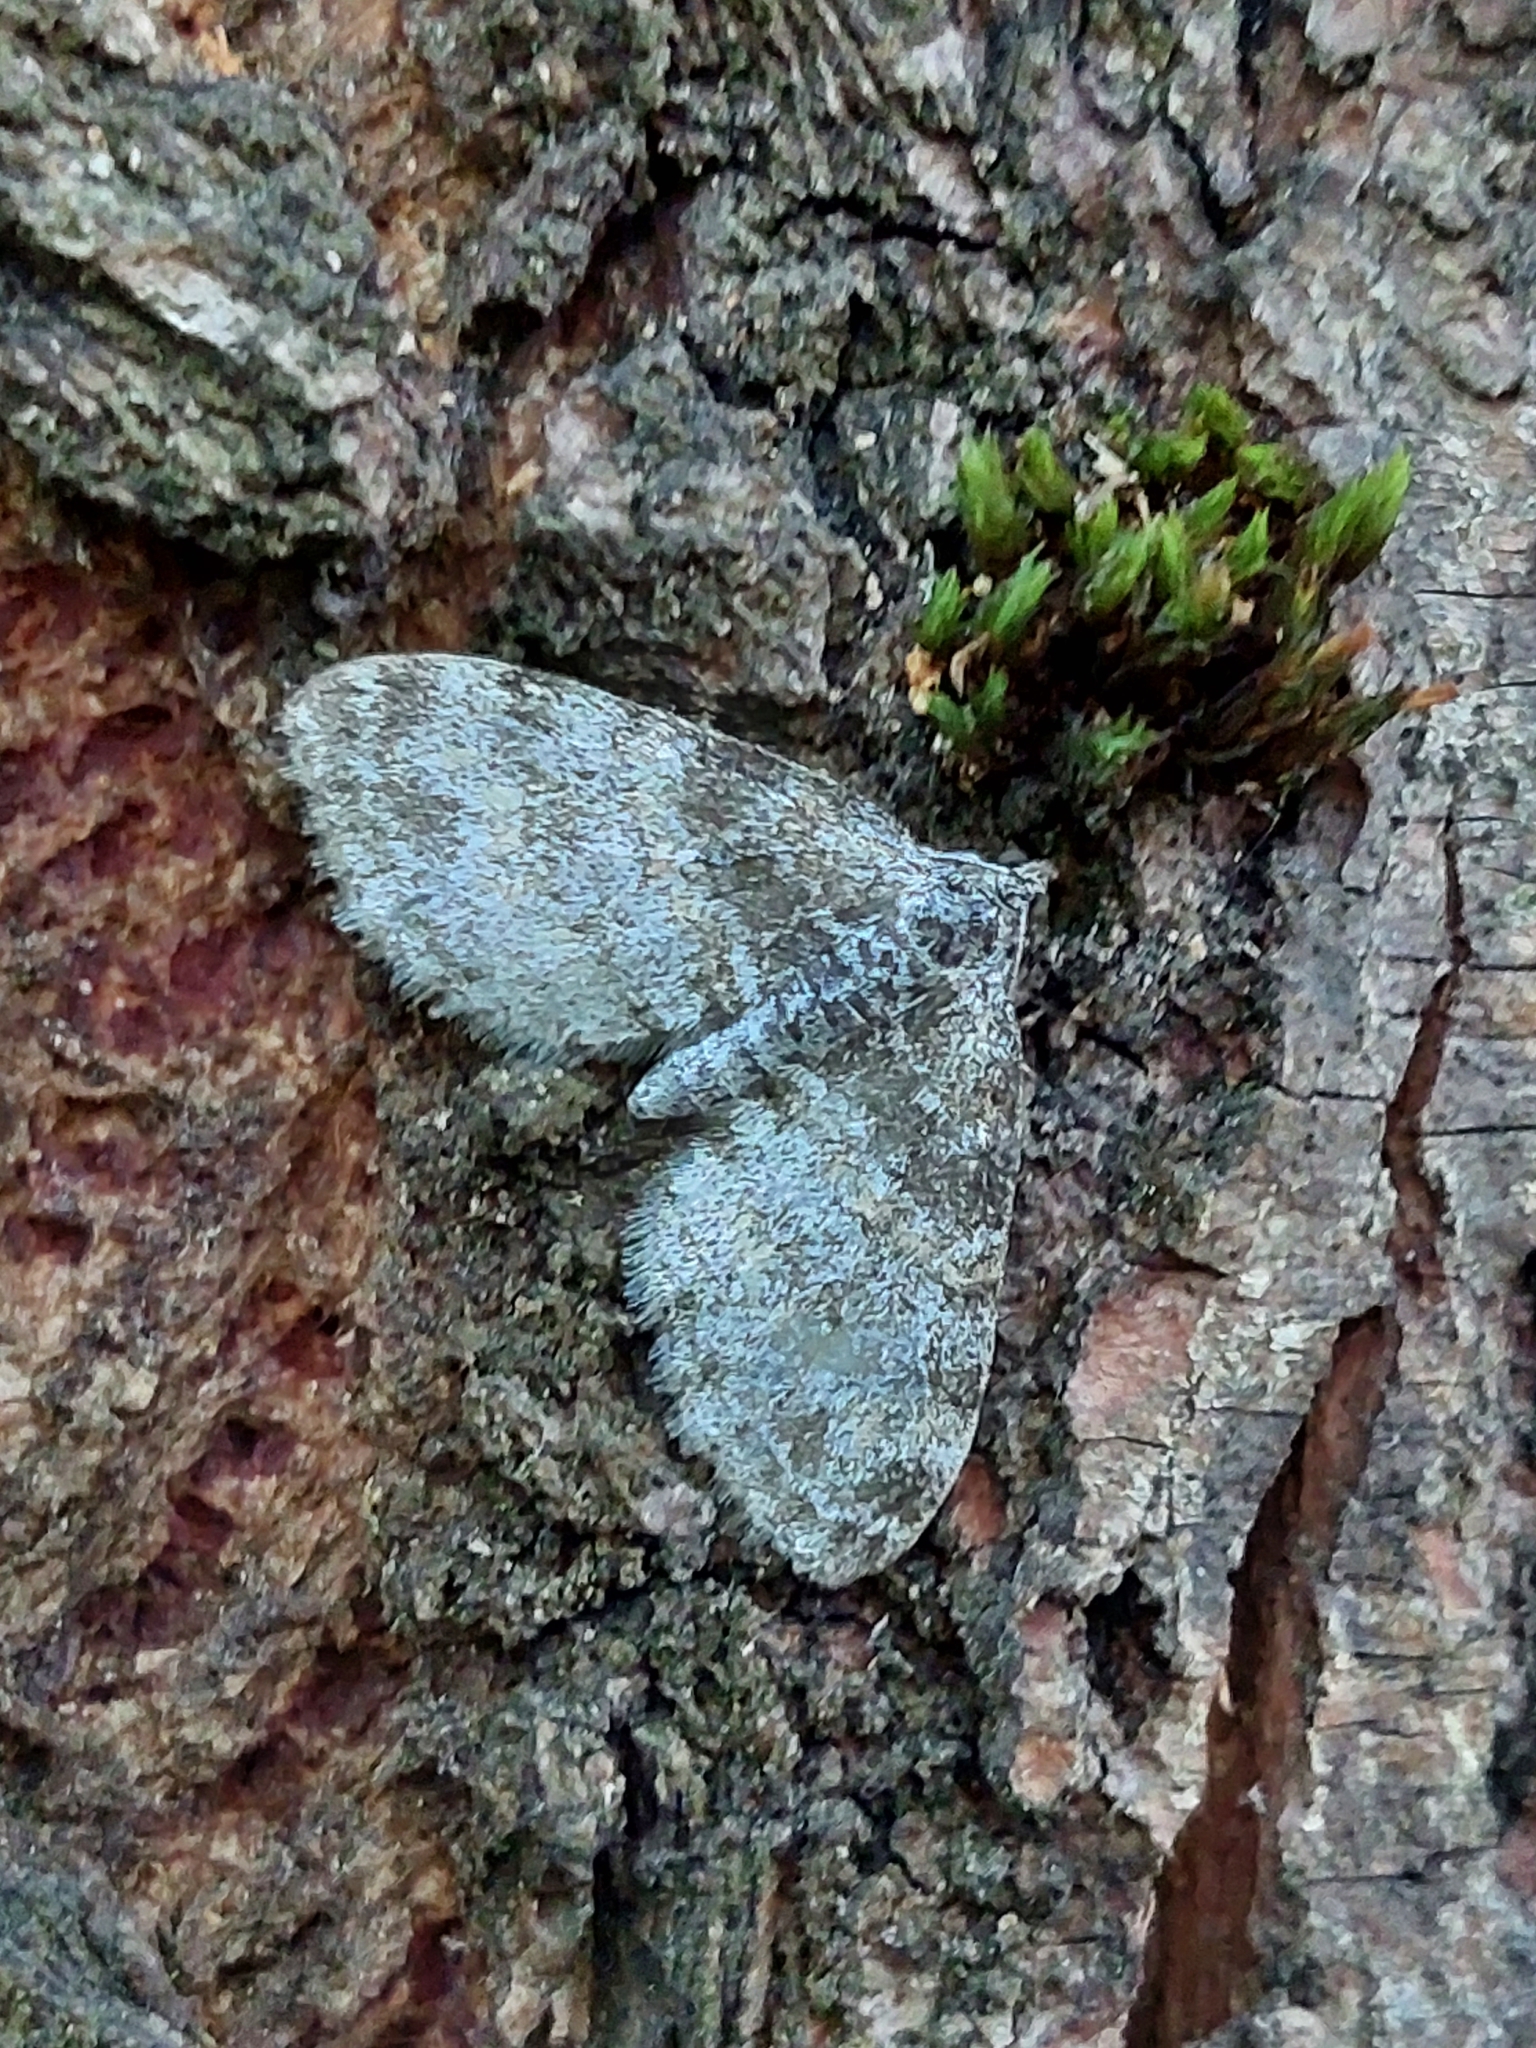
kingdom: Animalia
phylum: Arthropoda
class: Insecta
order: Lepidoptera
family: Geometridae
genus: Lobophora
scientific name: Lobophora halterata
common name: Seraphim
